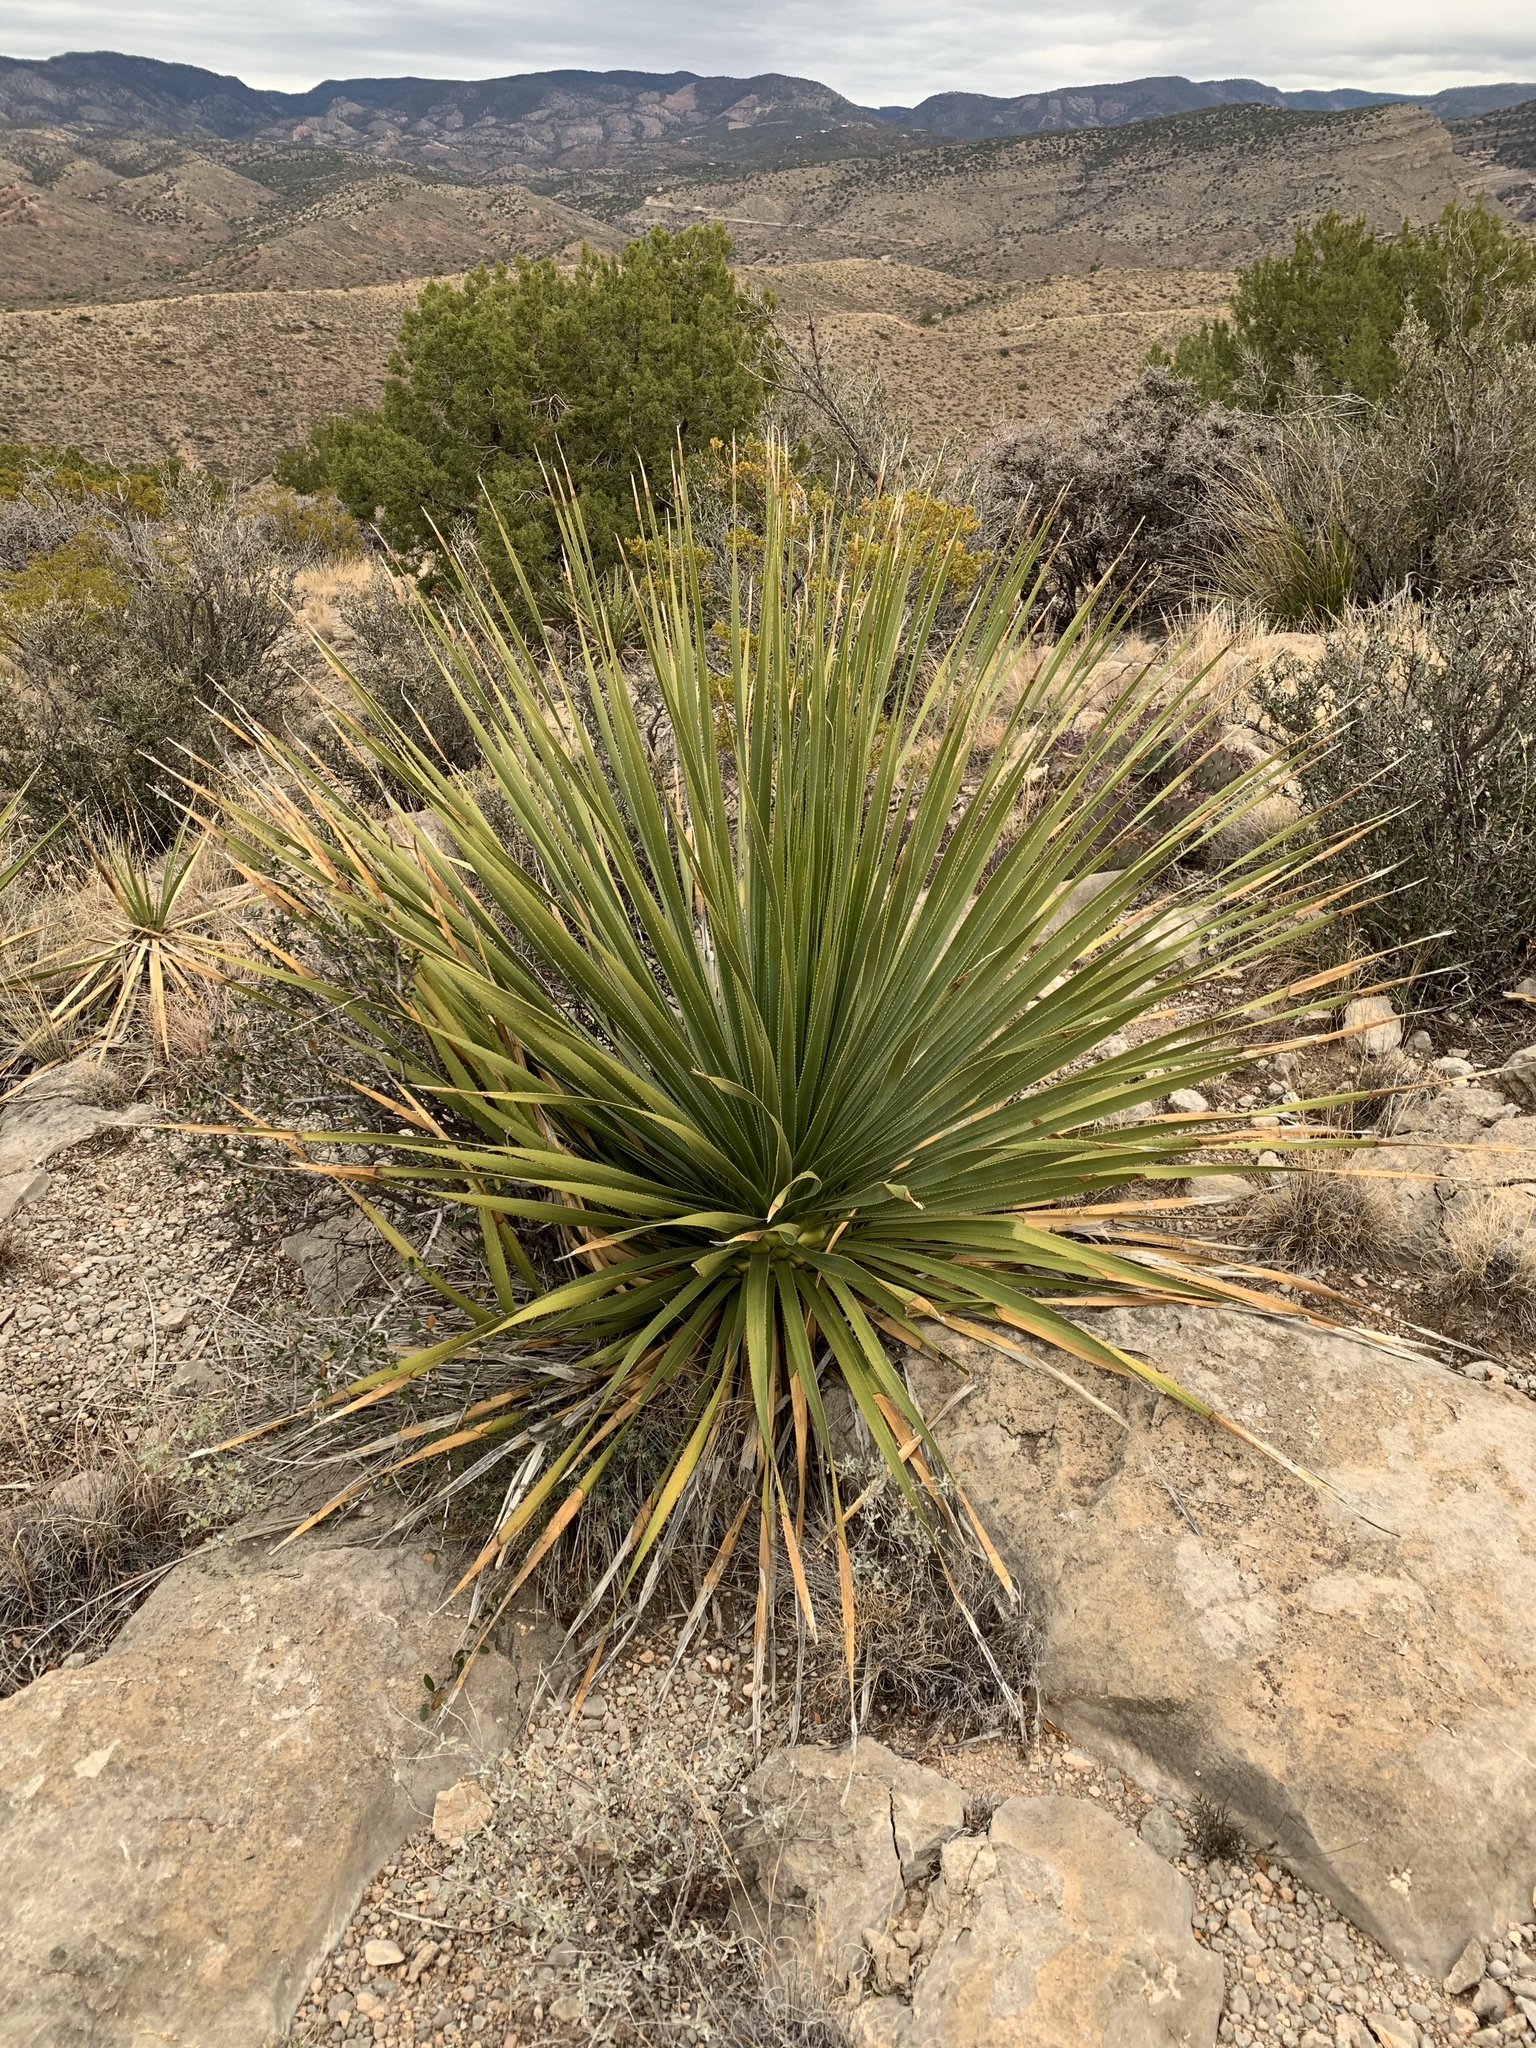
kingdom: Plantae
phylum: Tracheophyta
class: Liliopsida
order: Asparagales
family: Asparagaceae
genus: Dasylirion
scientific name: Dasylirion wheeleri
